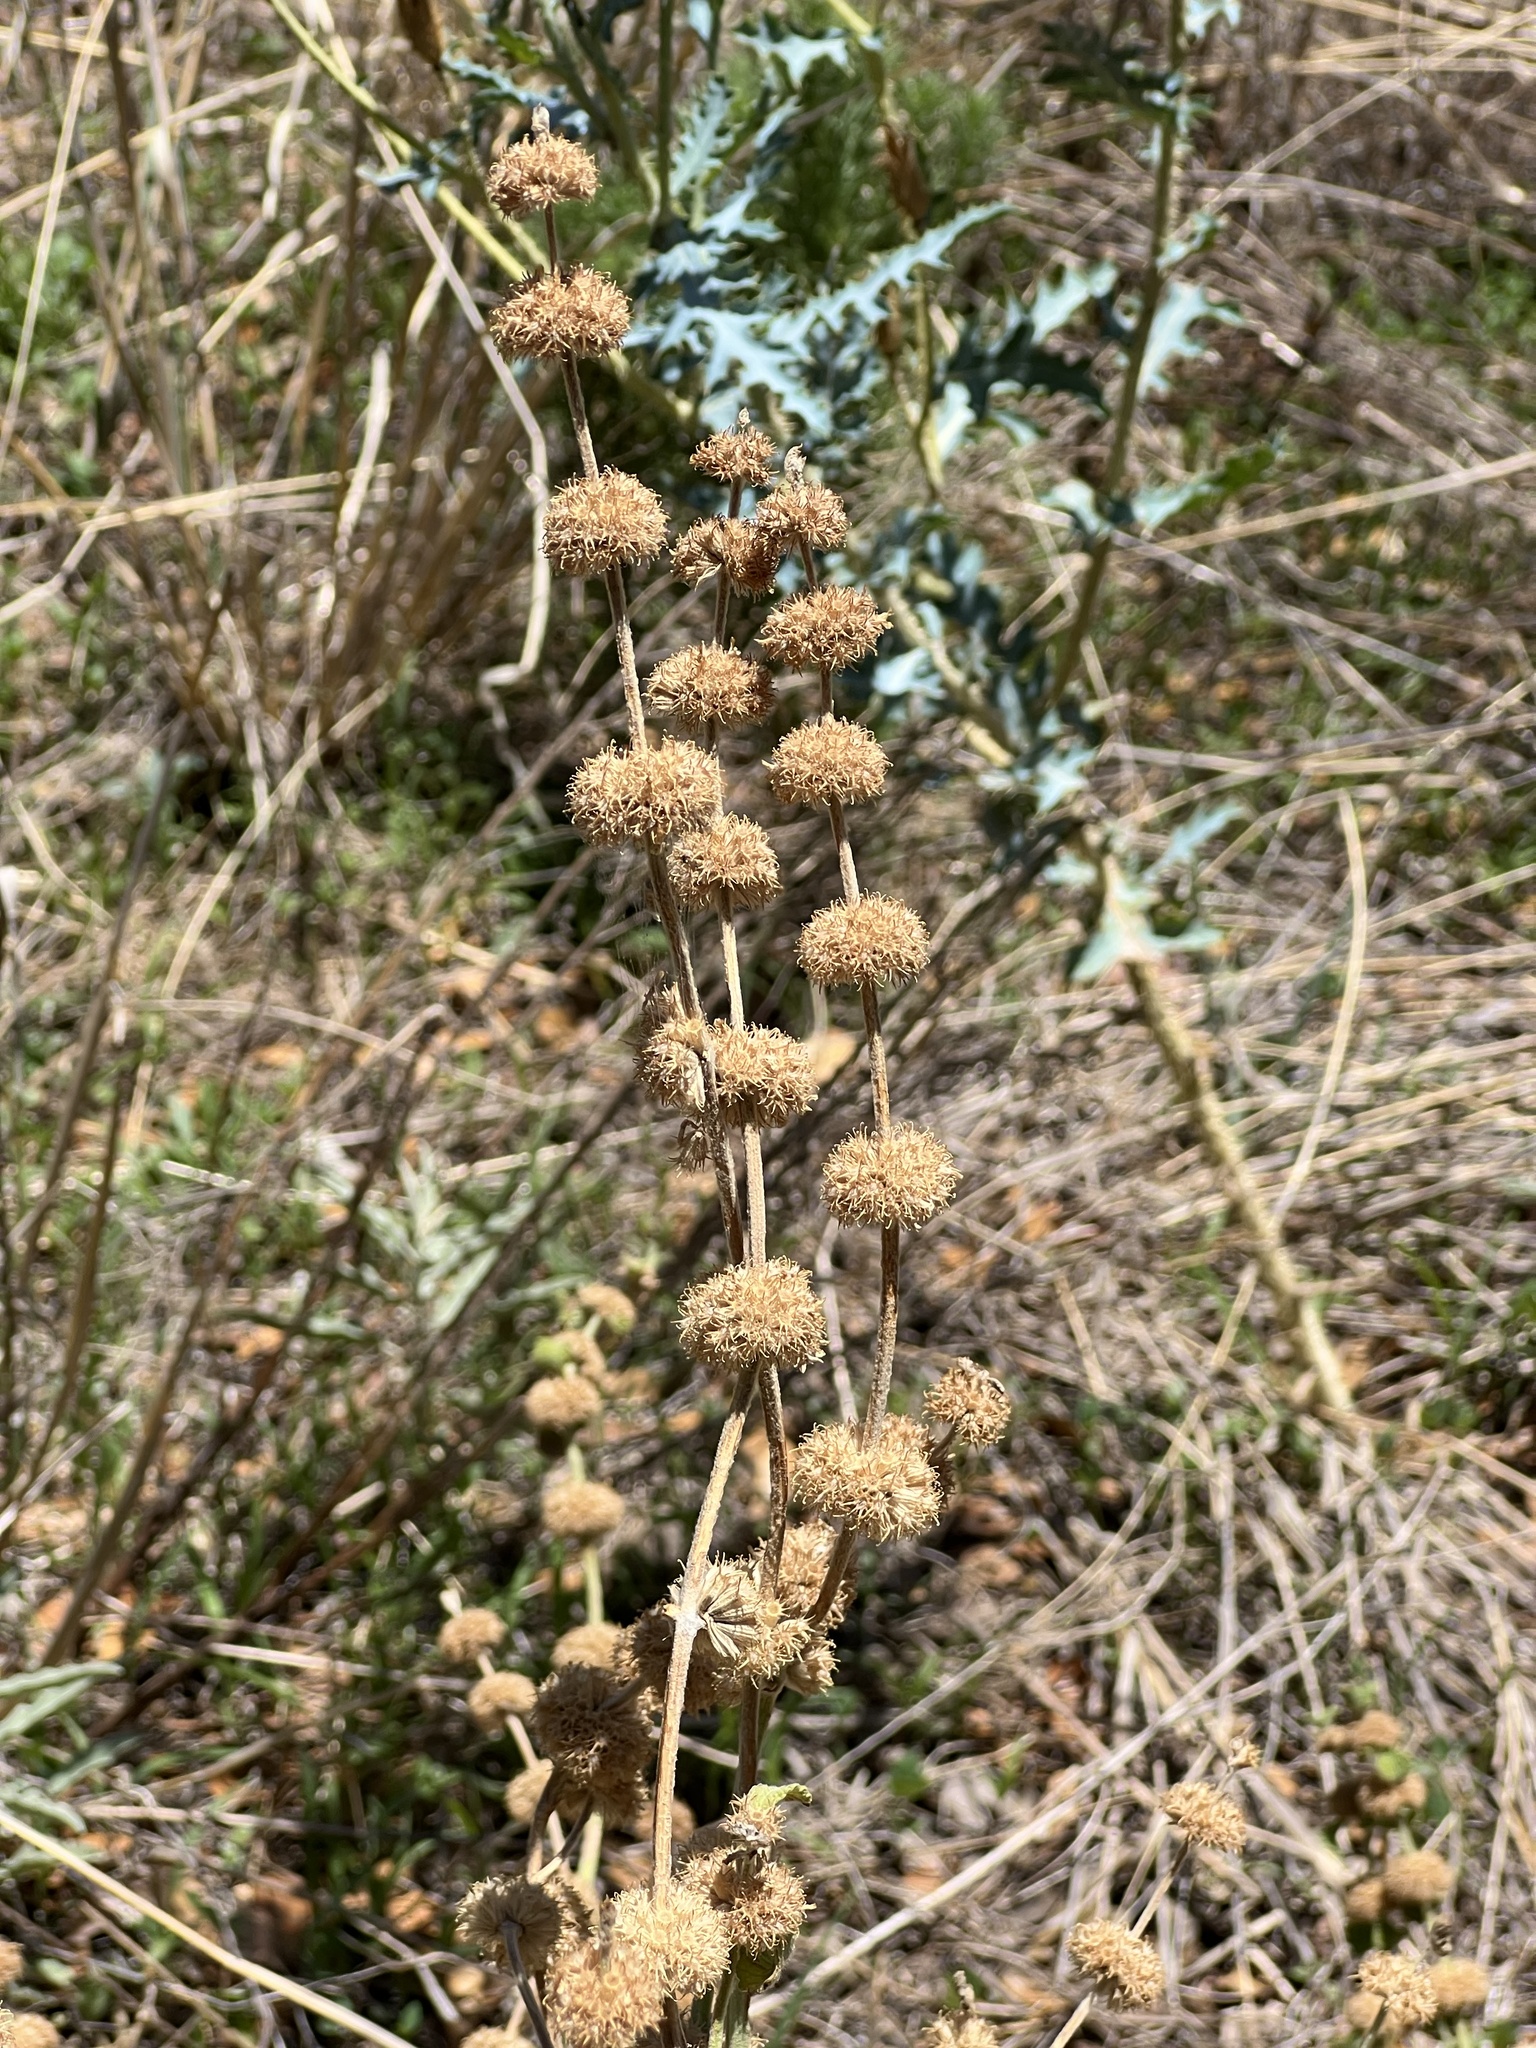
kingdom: Plantae
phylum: Tracheophyta
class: Magnoliopsida
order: Lamiales
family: Lamiaceae
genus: Marrubium
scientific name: Marrubium vulgare
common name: Horehound
